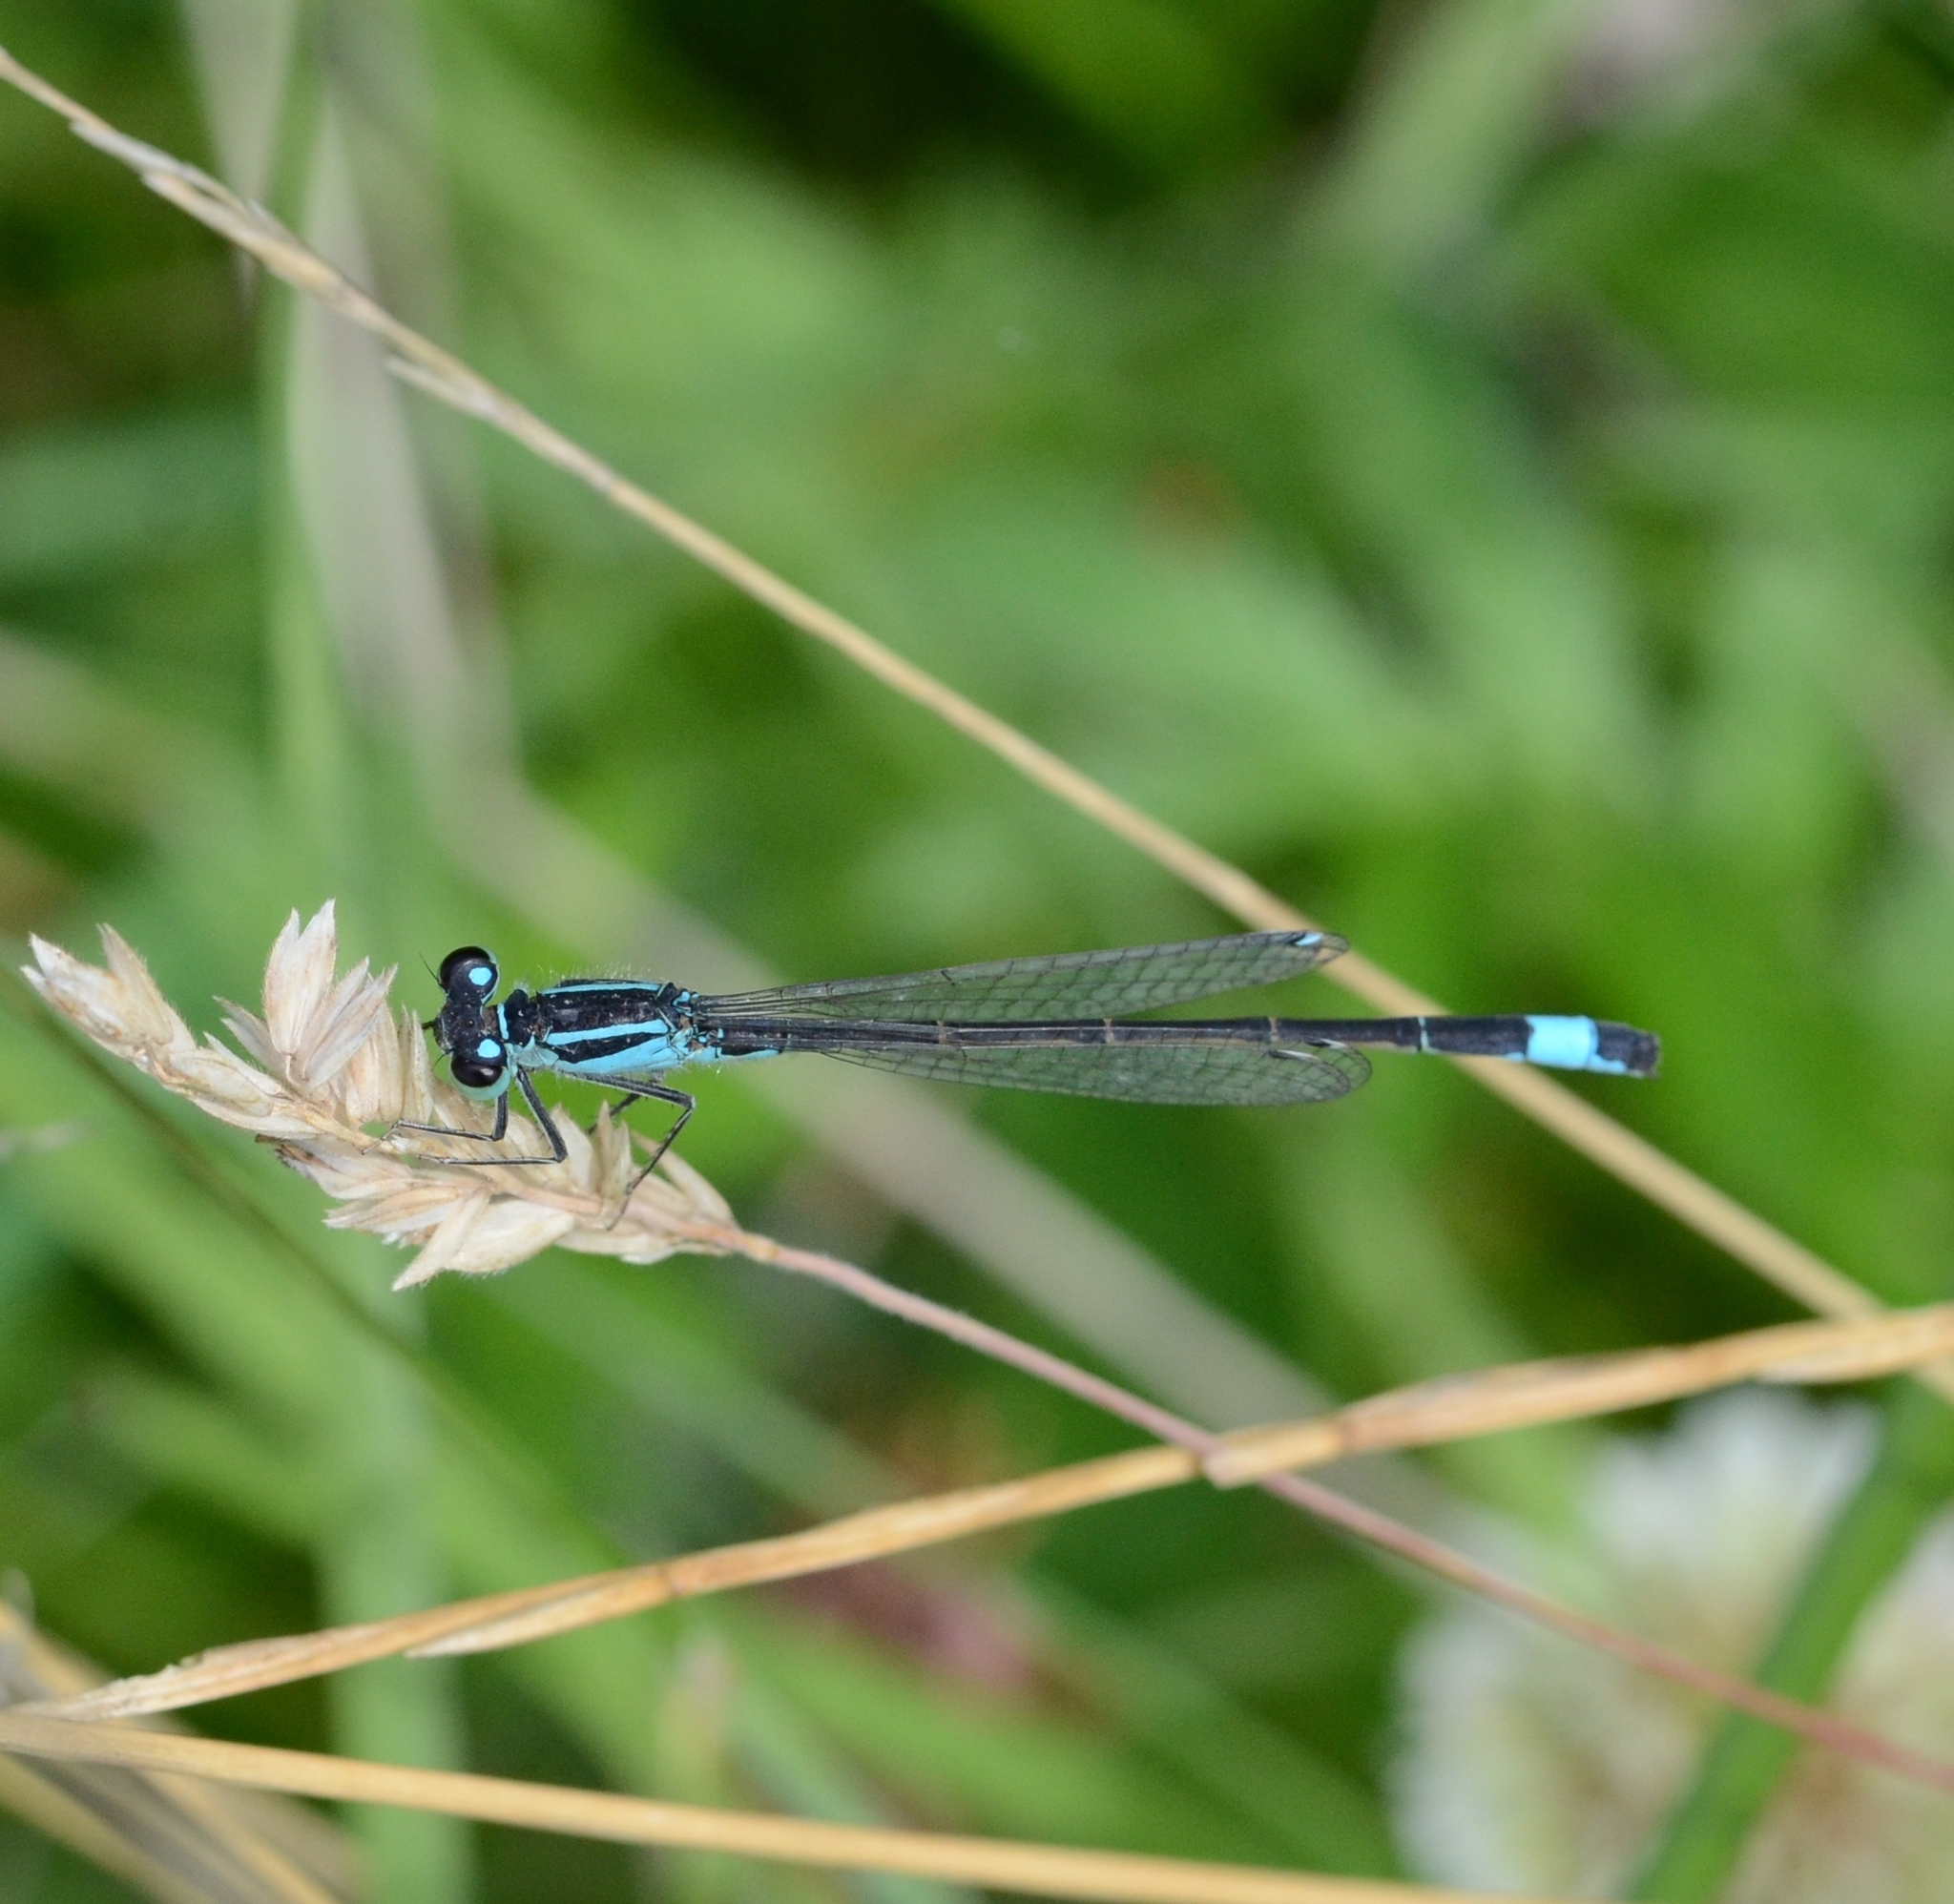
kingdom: Animalia
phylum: Arthropoda
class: Insecta
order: Odonata
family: Coenagrionidae
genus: Ischnura
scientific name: Ischnura elegans
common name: Blue-tailed damselfly
